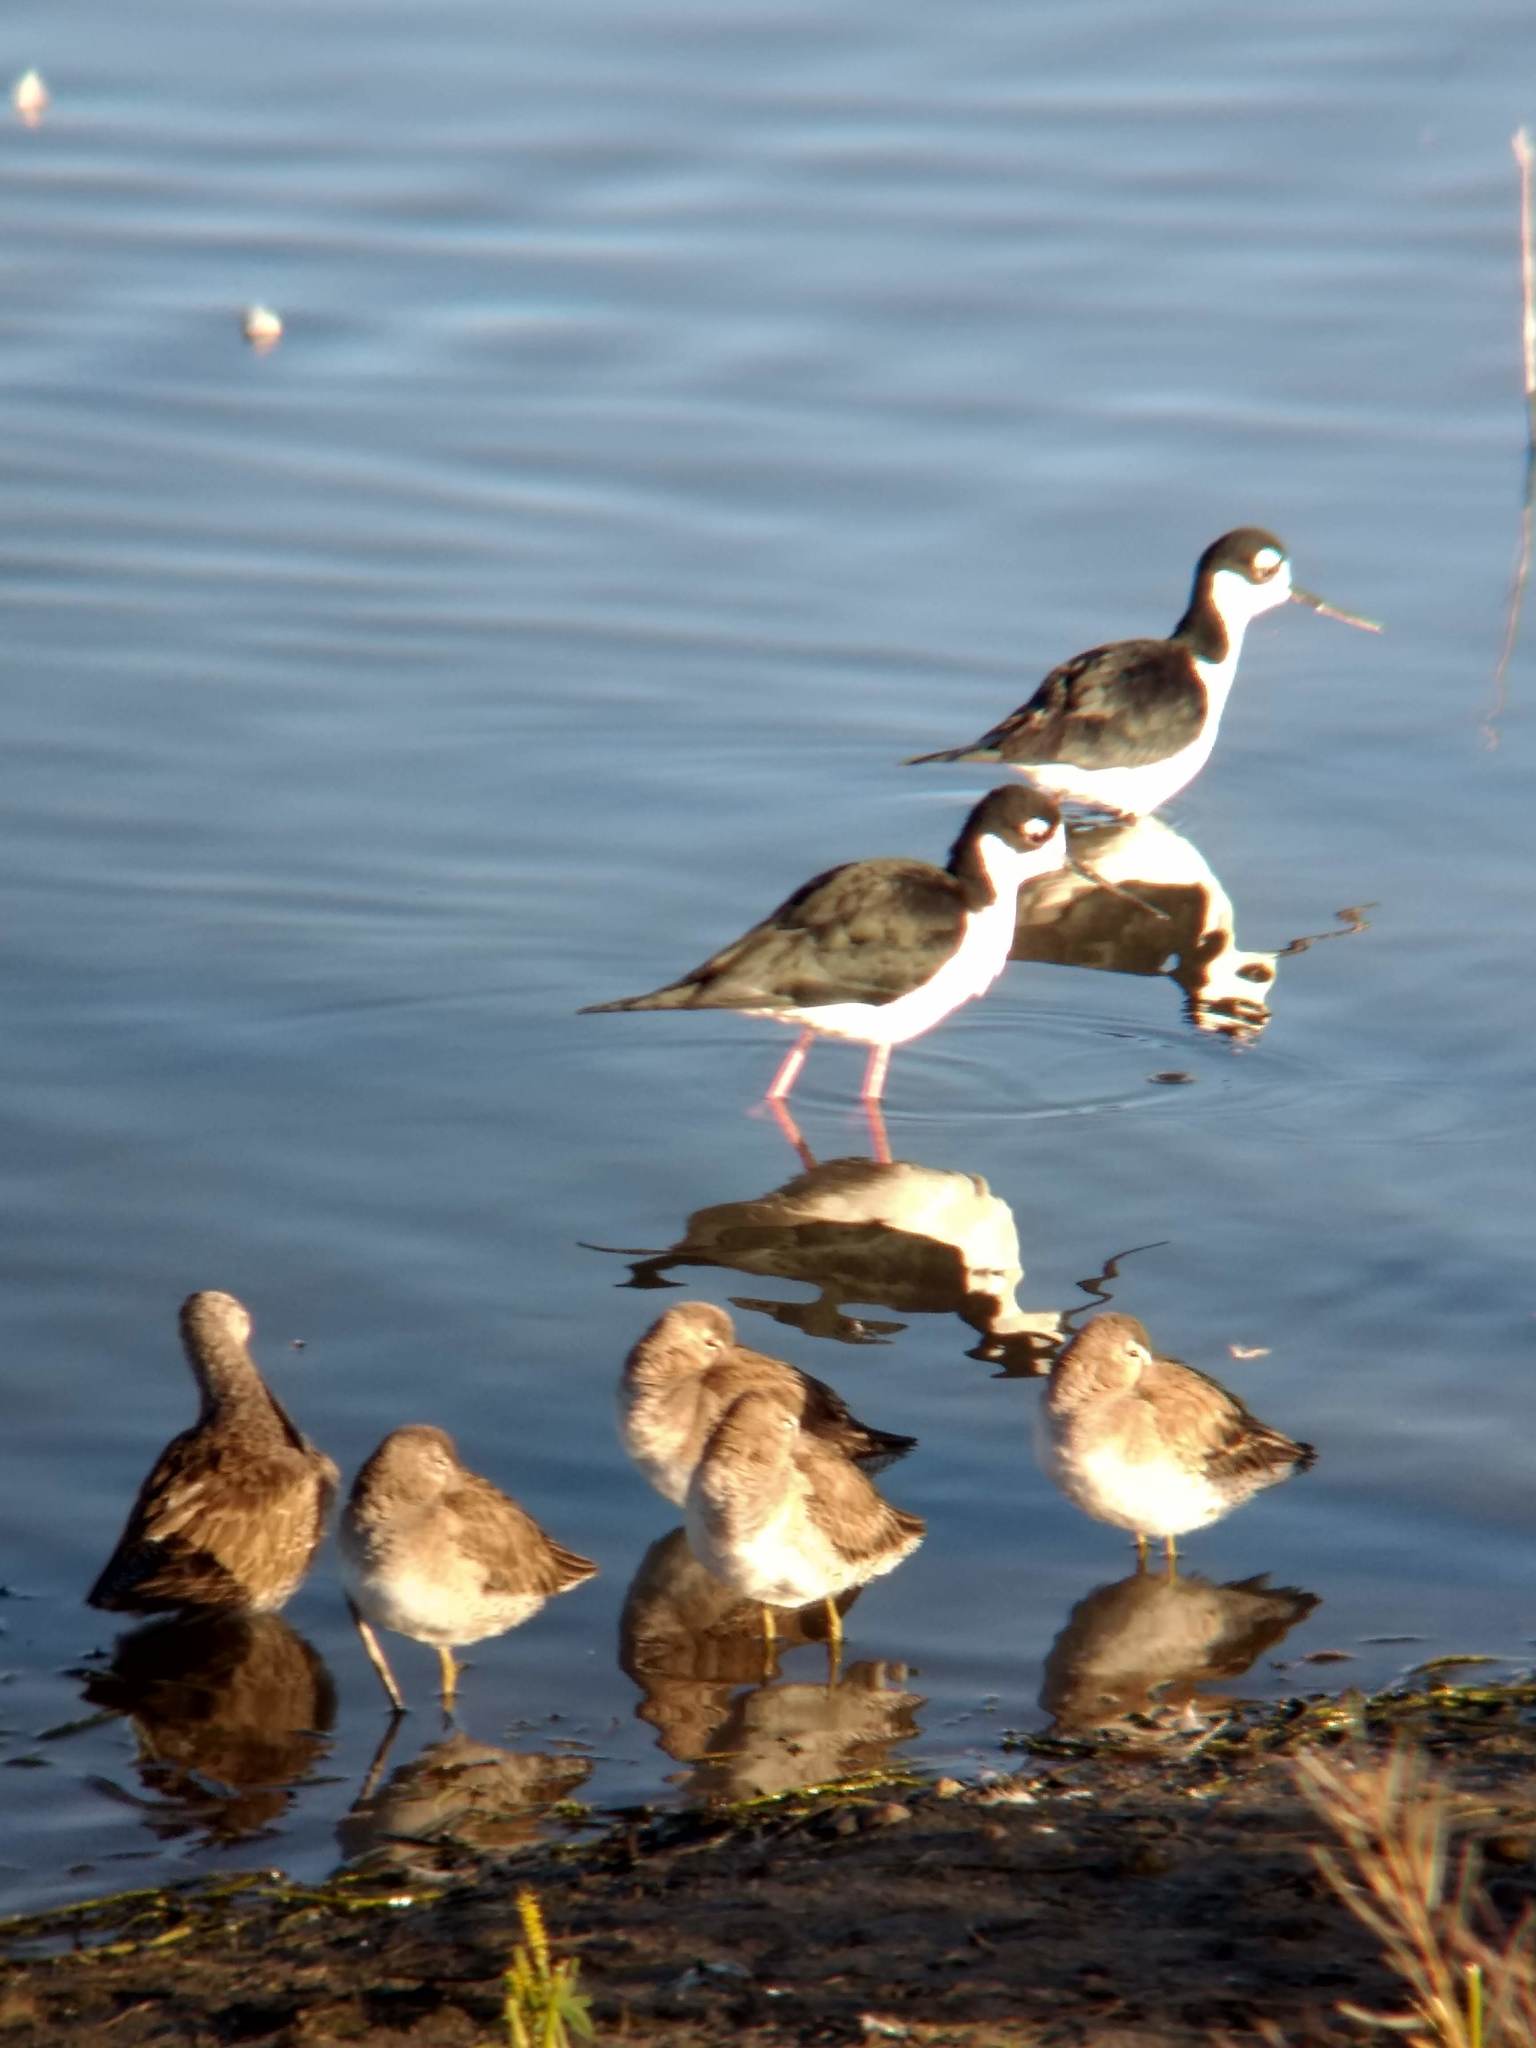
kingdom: Animalia
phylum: Chordata
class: Aves
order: Charadriiformes
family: Recurvirostridae
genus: Himantopus
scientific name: Himantopus mexicanus
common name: Black-necked stilt
